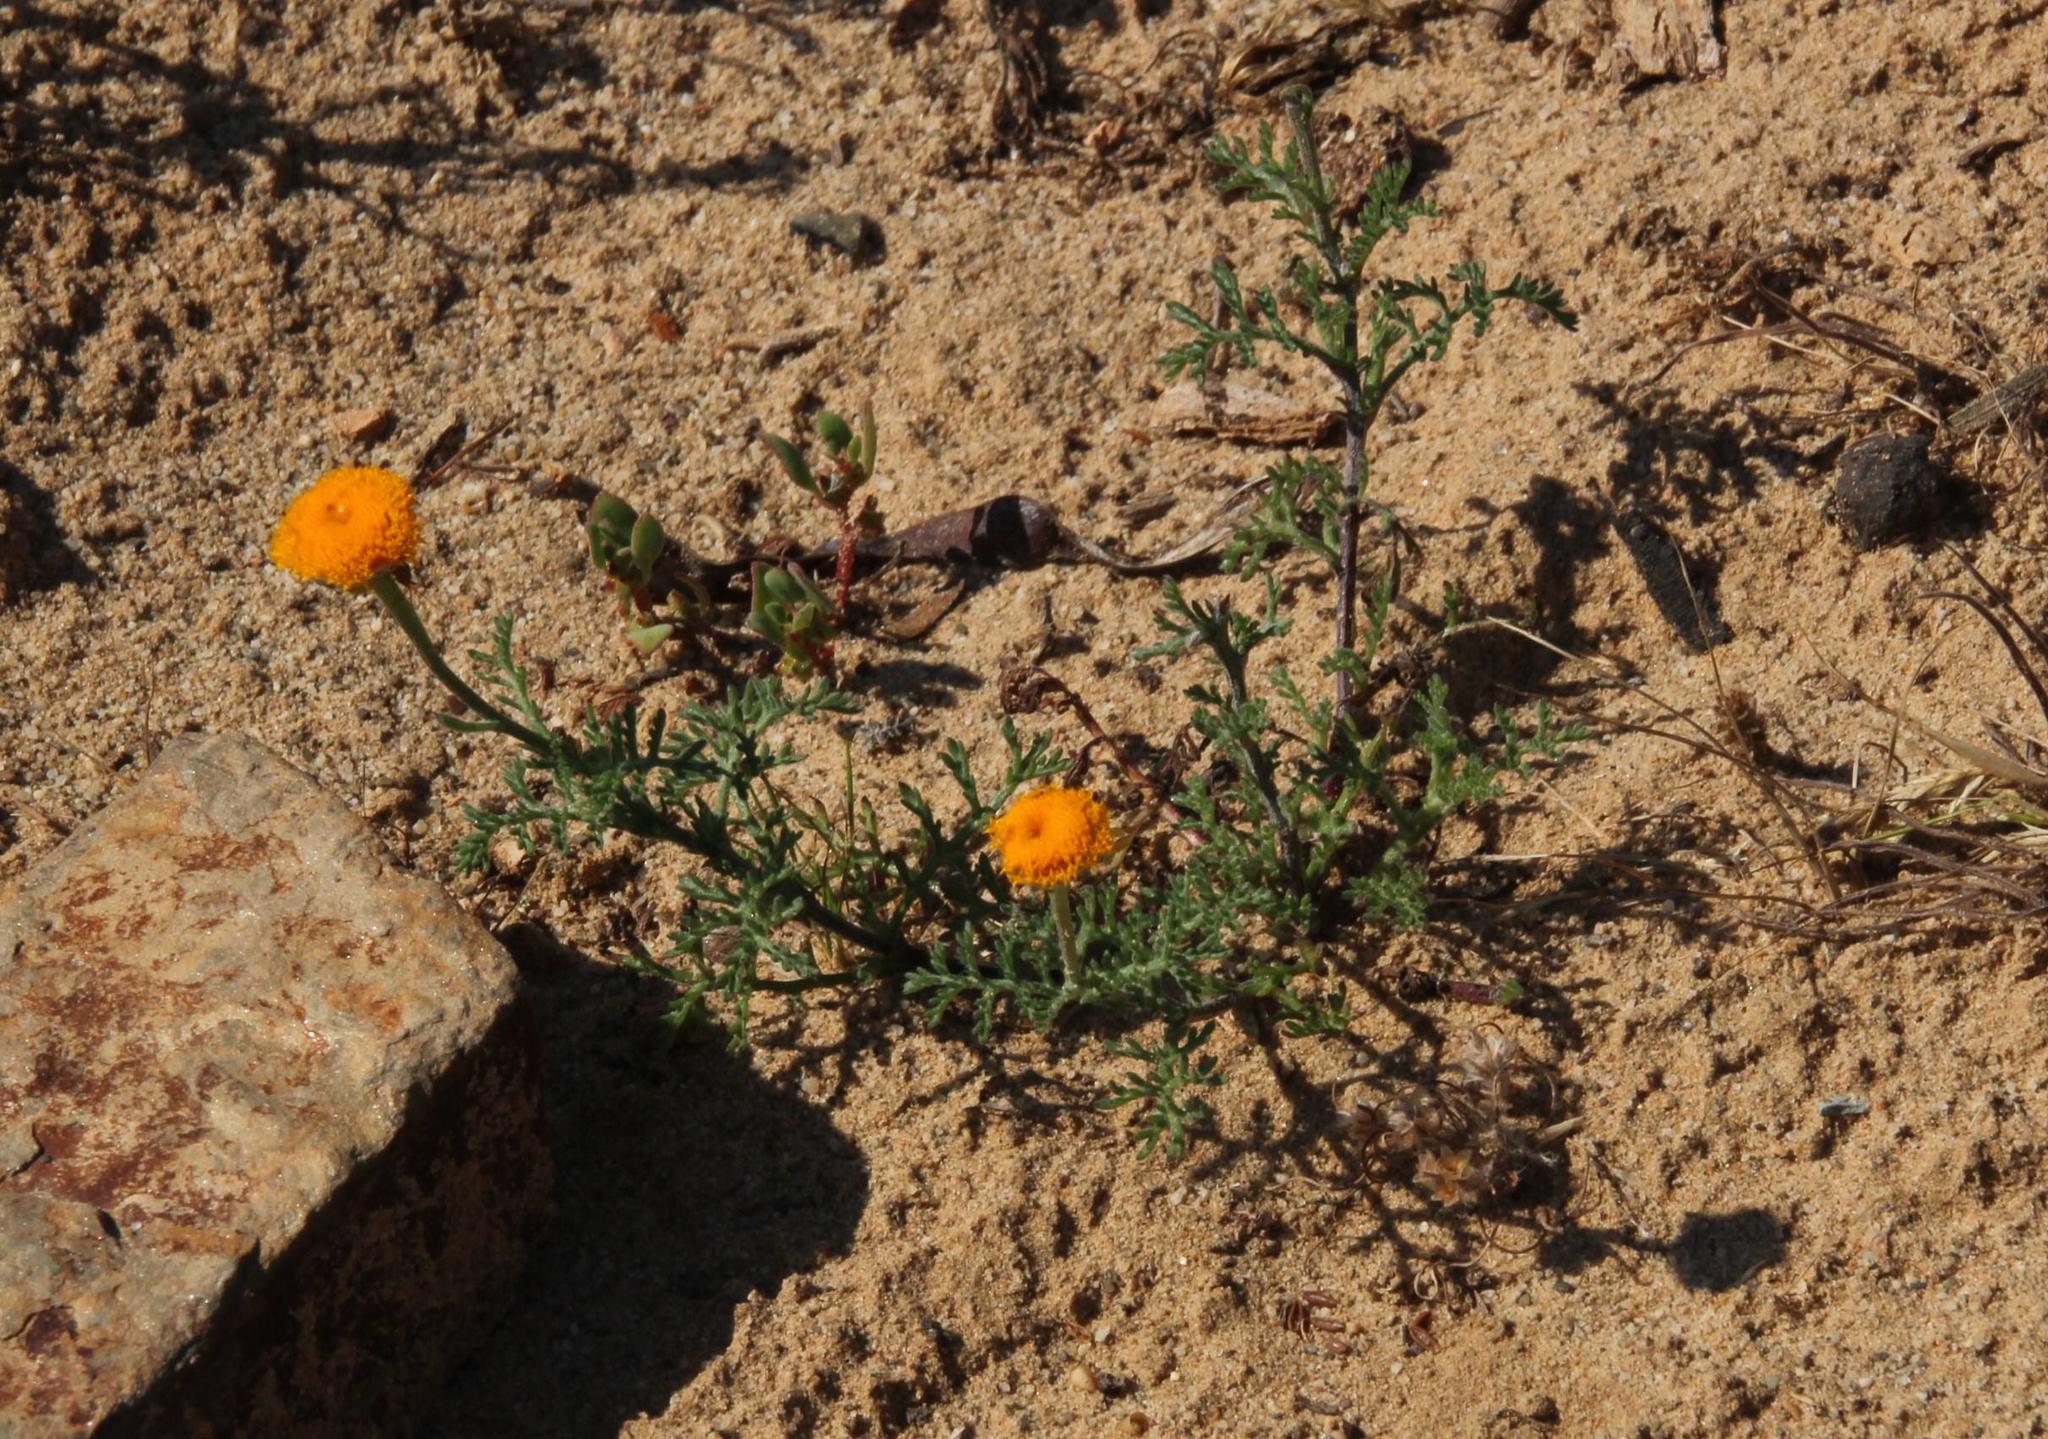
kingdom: Plantae
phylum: Tracheophyta
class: Magnoliopsida
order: Asterales
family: Asteraceae
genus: Oncosiphon
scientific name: Oncosiphon grandiflorus
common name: Swollen-flowered maywood
